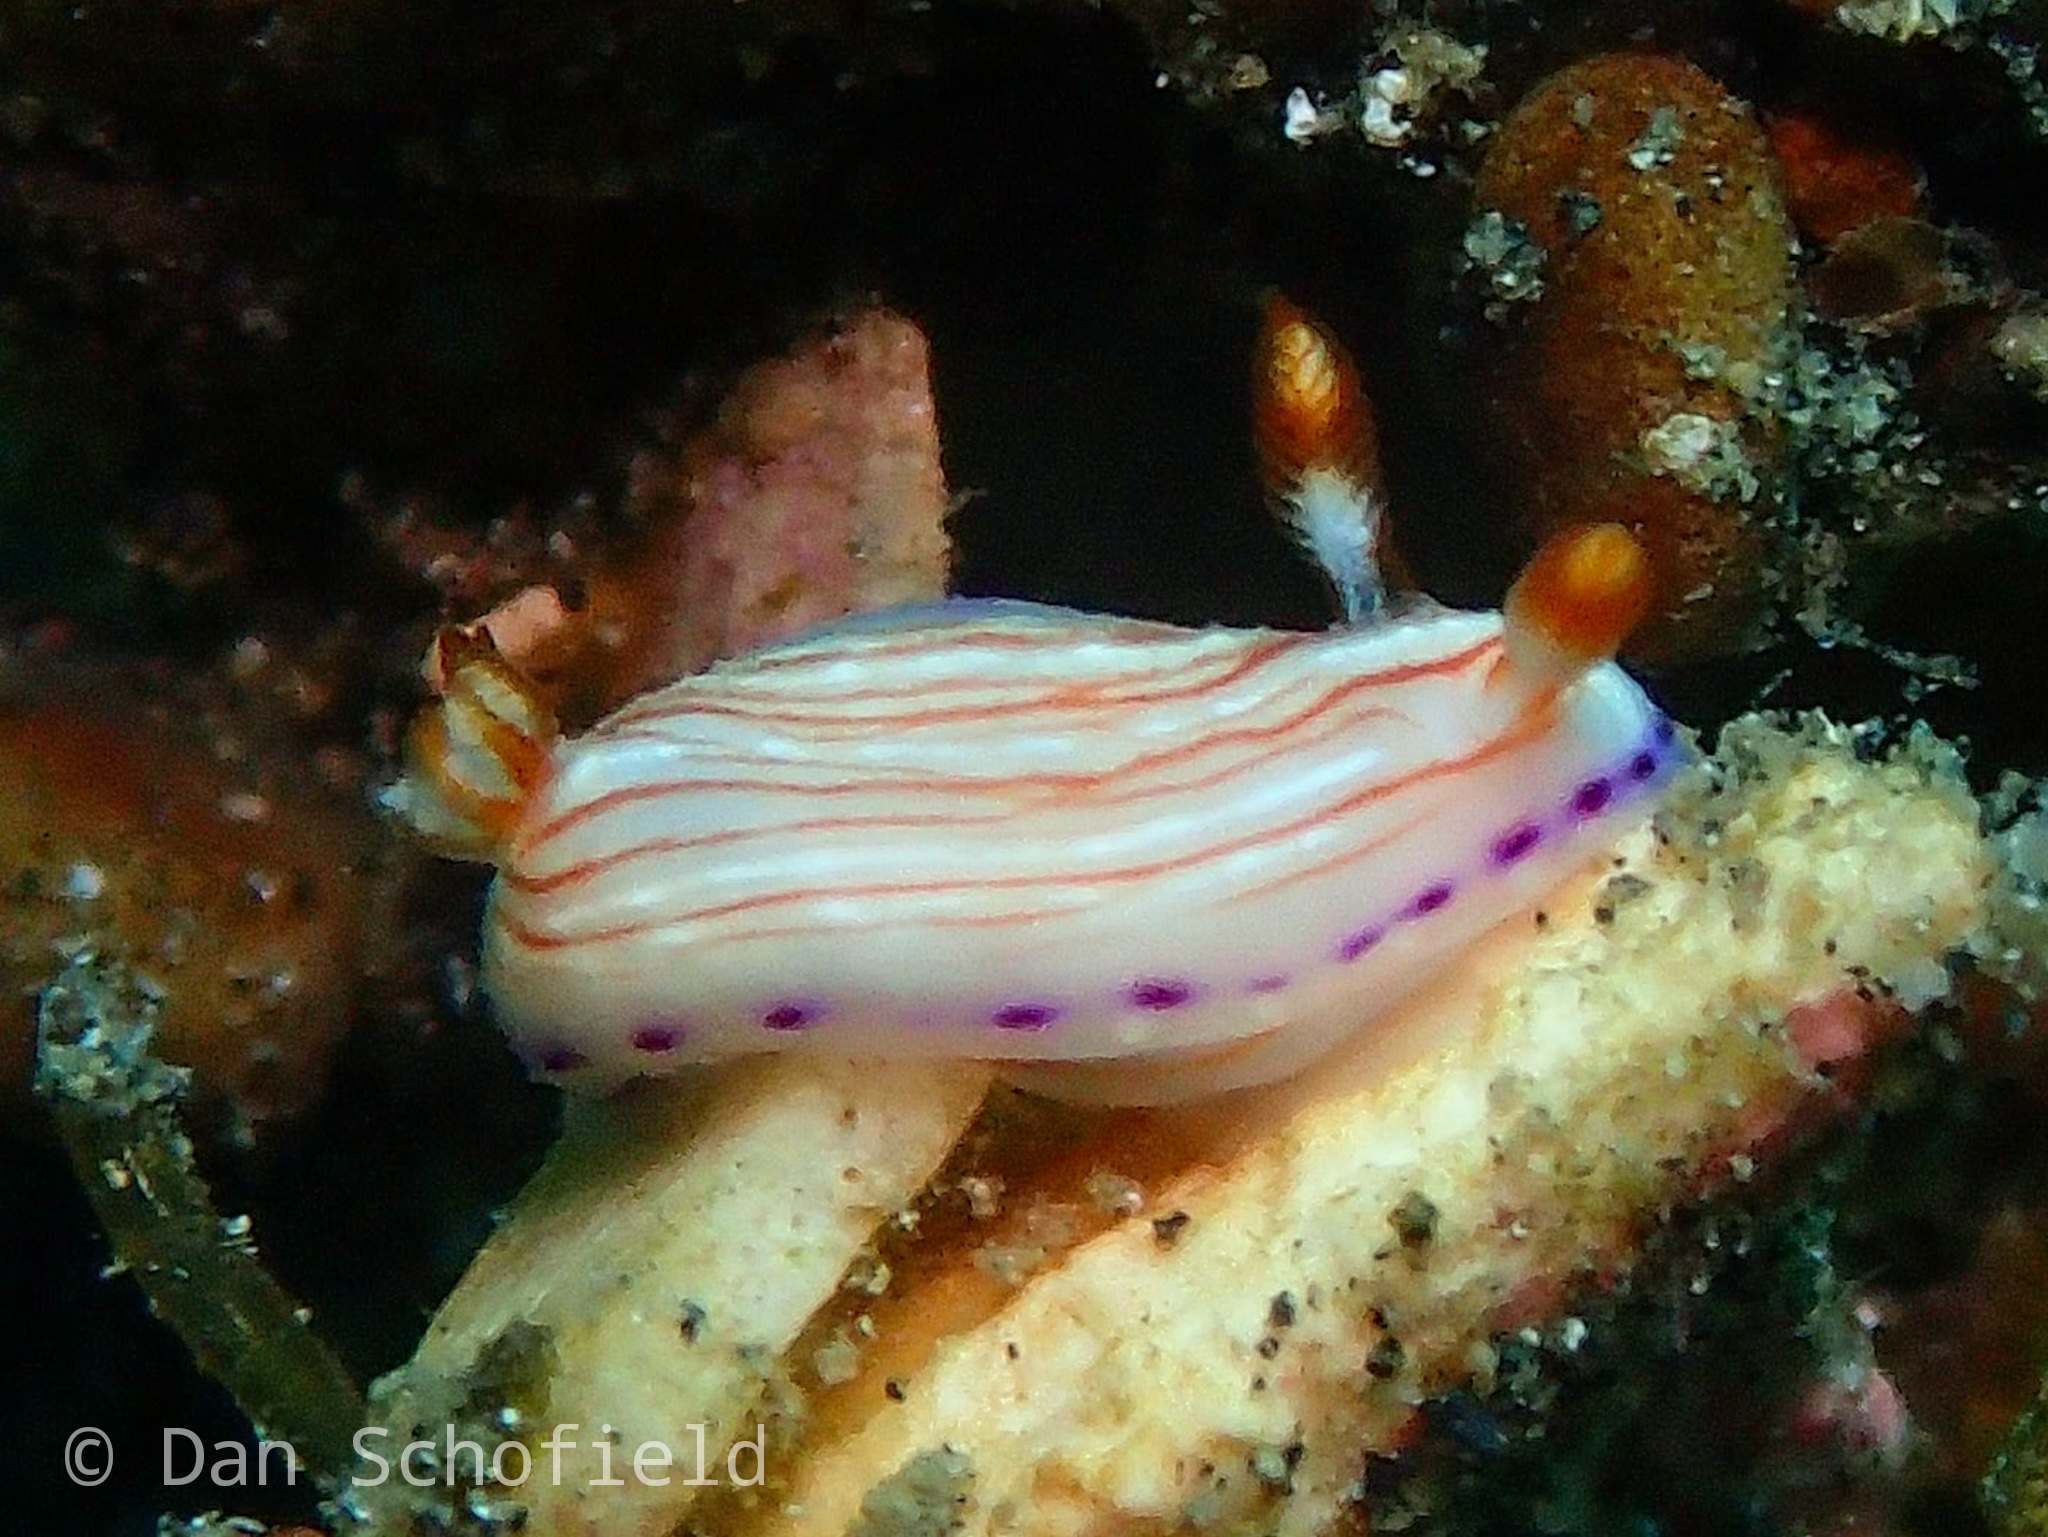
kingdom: Animalia
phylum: Mollusca
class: Gastropoda
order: Nudibranchia
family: Chromodorididae
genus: Hypselodoris
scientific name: Hypselodoris katherinae
